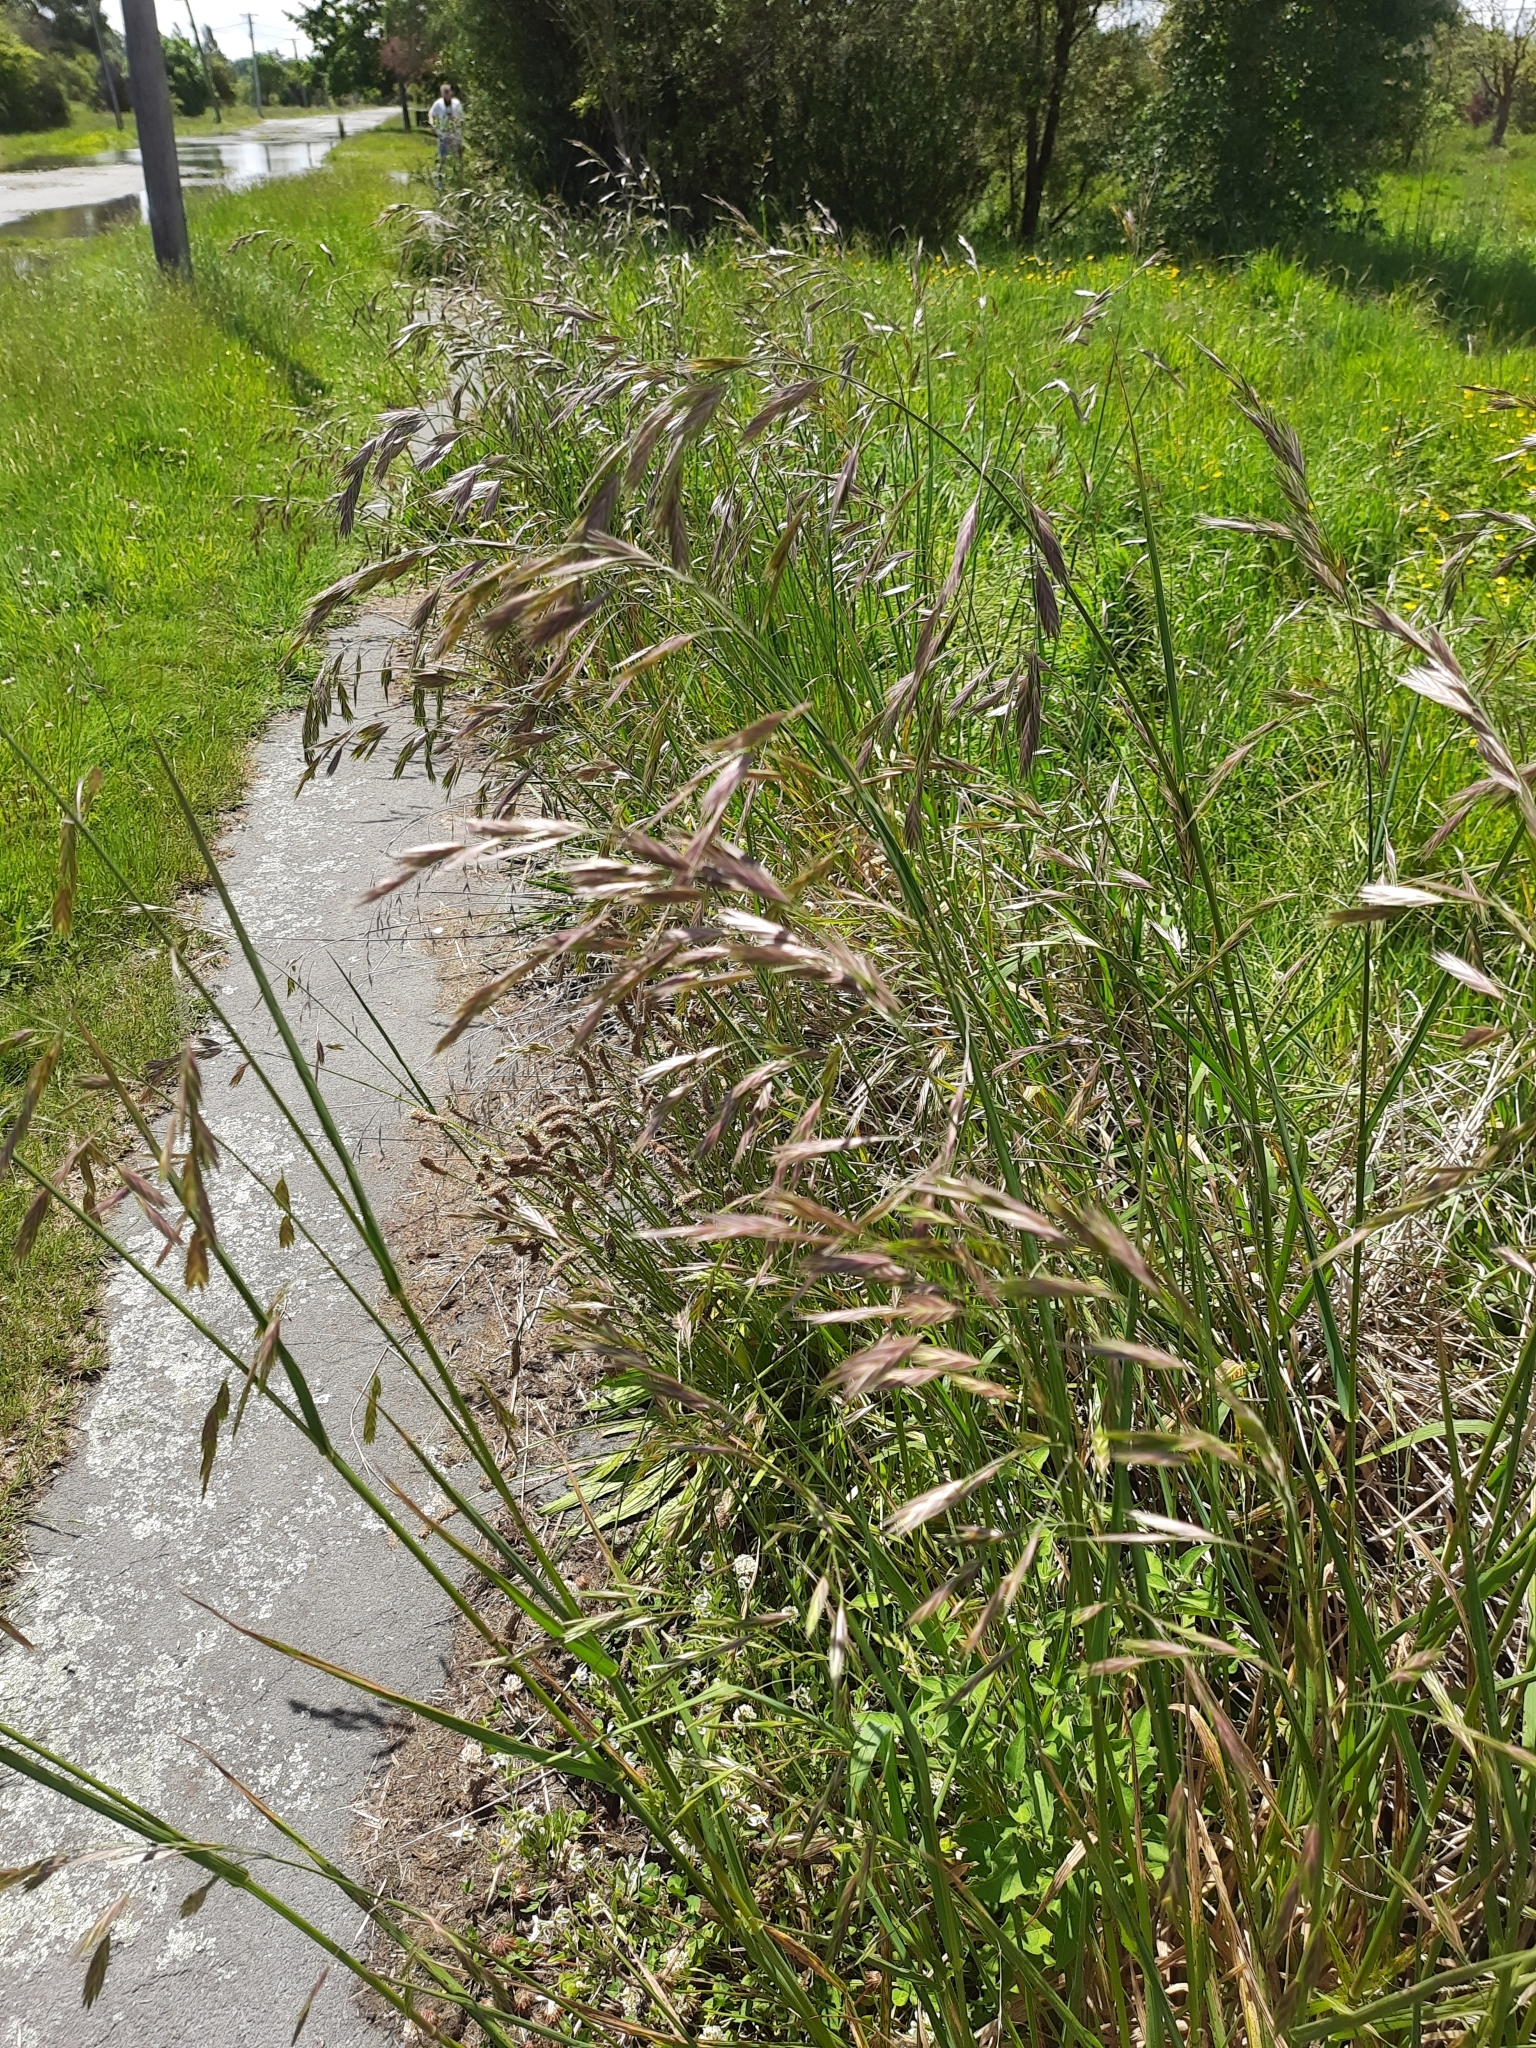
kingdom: Plantae
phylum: Tracheophyta
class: Liliopsida
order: Poales
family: Poaceae
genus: Bromus
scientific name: Bromus catharticus
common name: Rescuegrass
